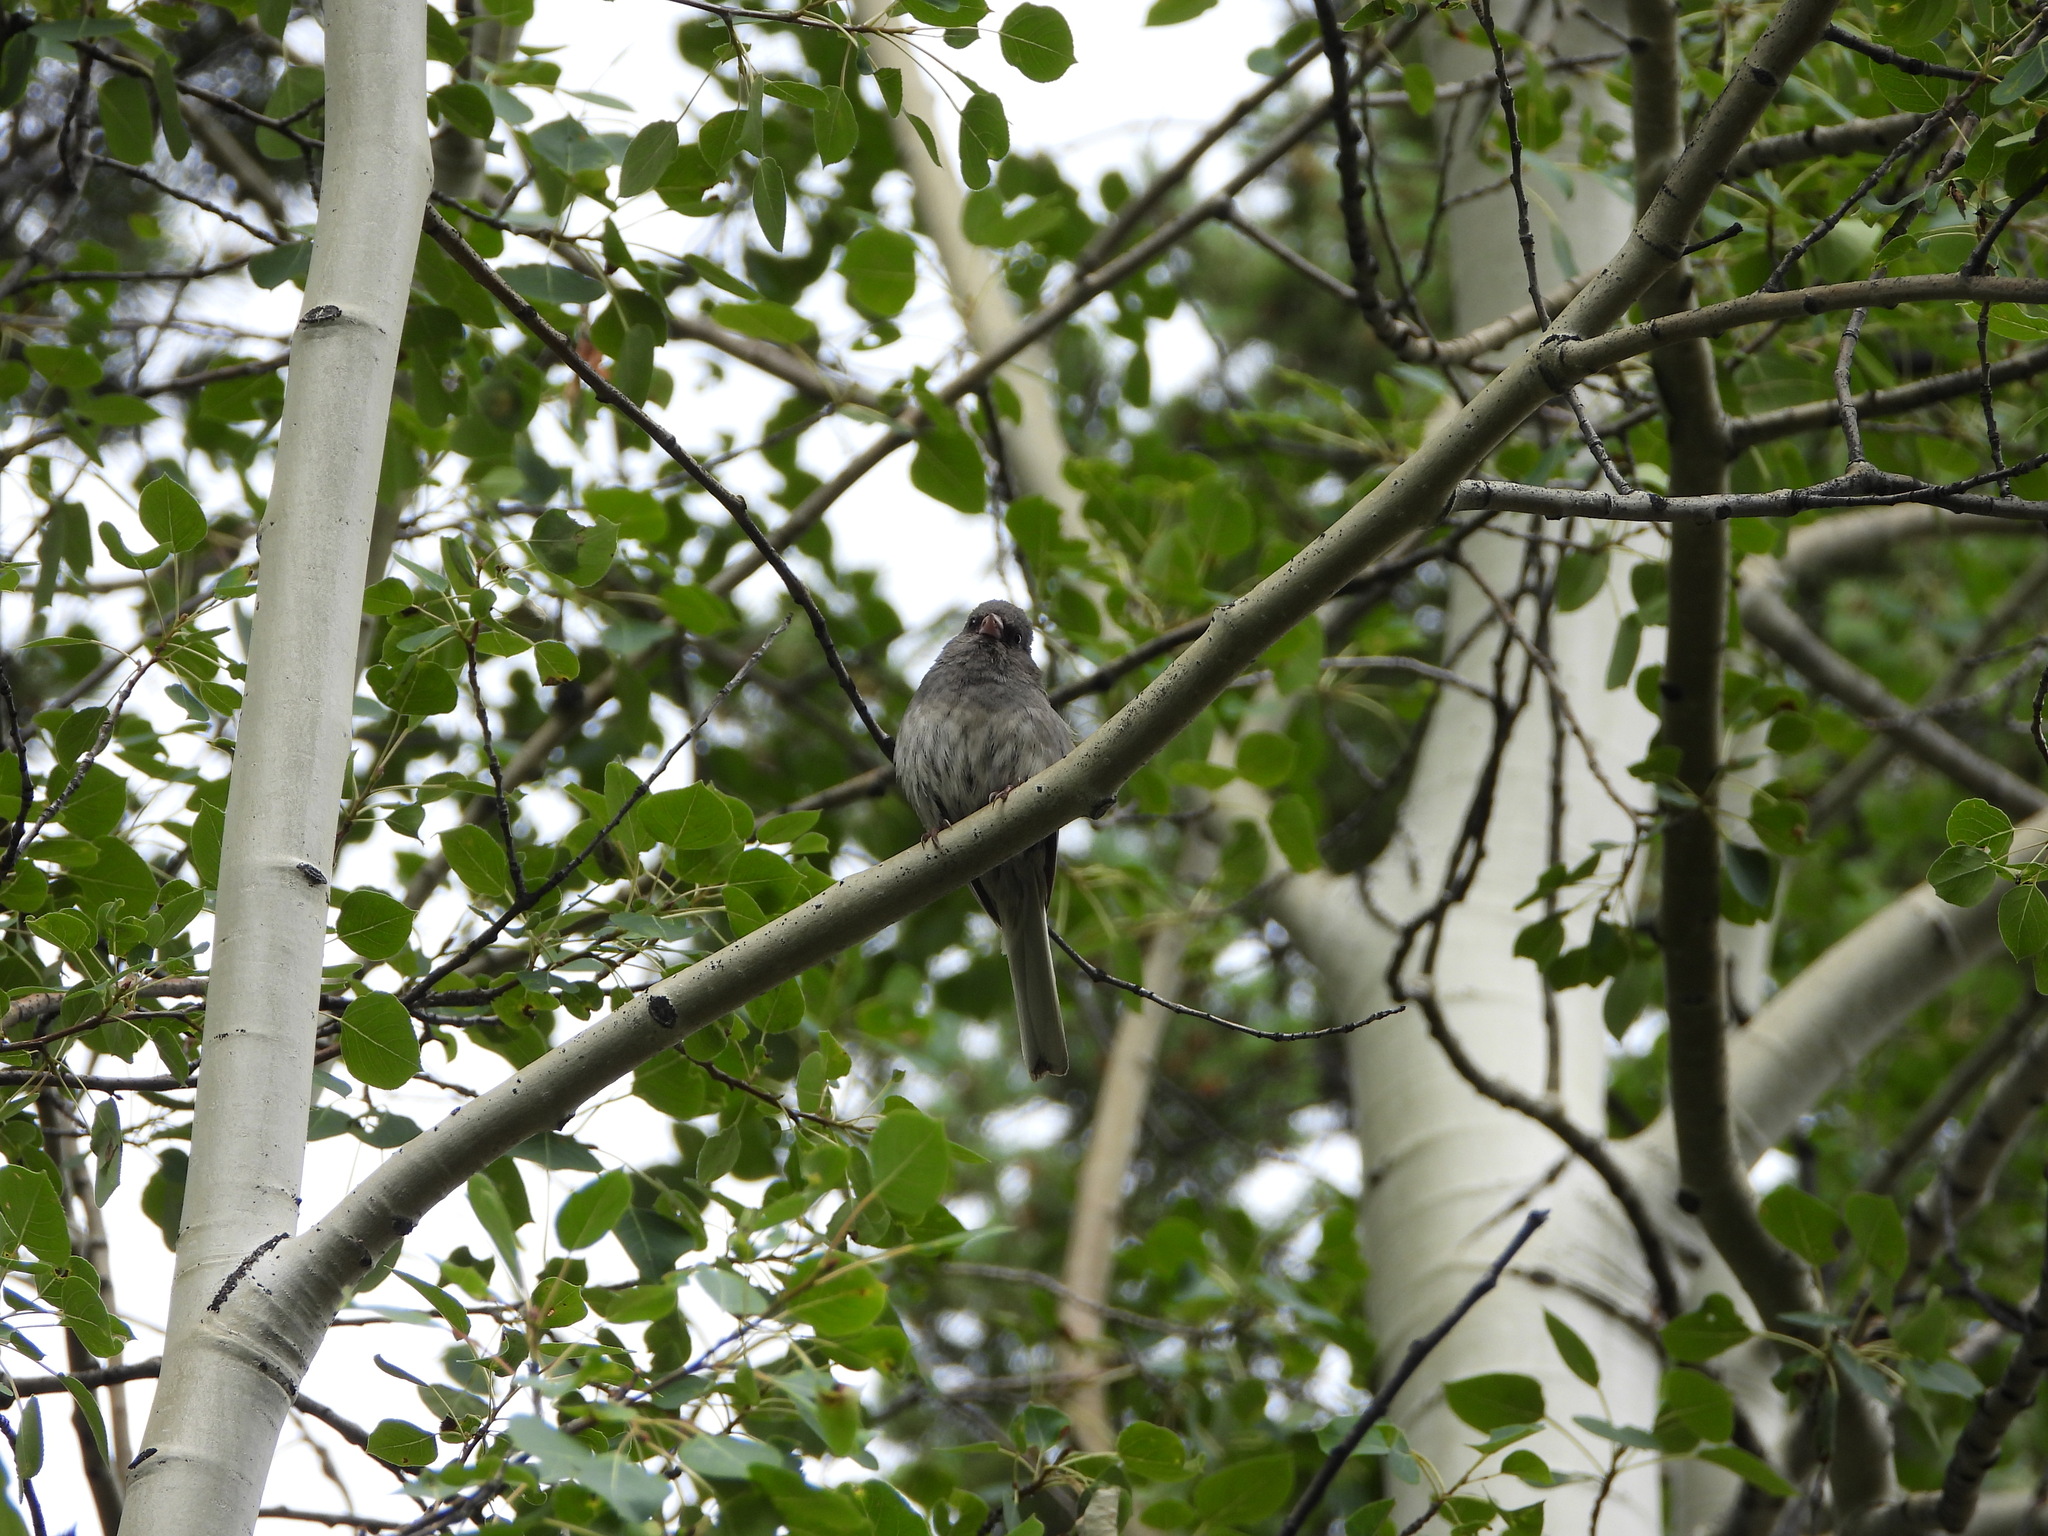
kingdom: Animalia
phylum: Chordata
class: Aves
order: Passeriformes
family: Passerellidae
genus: Junco
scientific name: Junco hyemalis
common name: Dark-eyed junco
